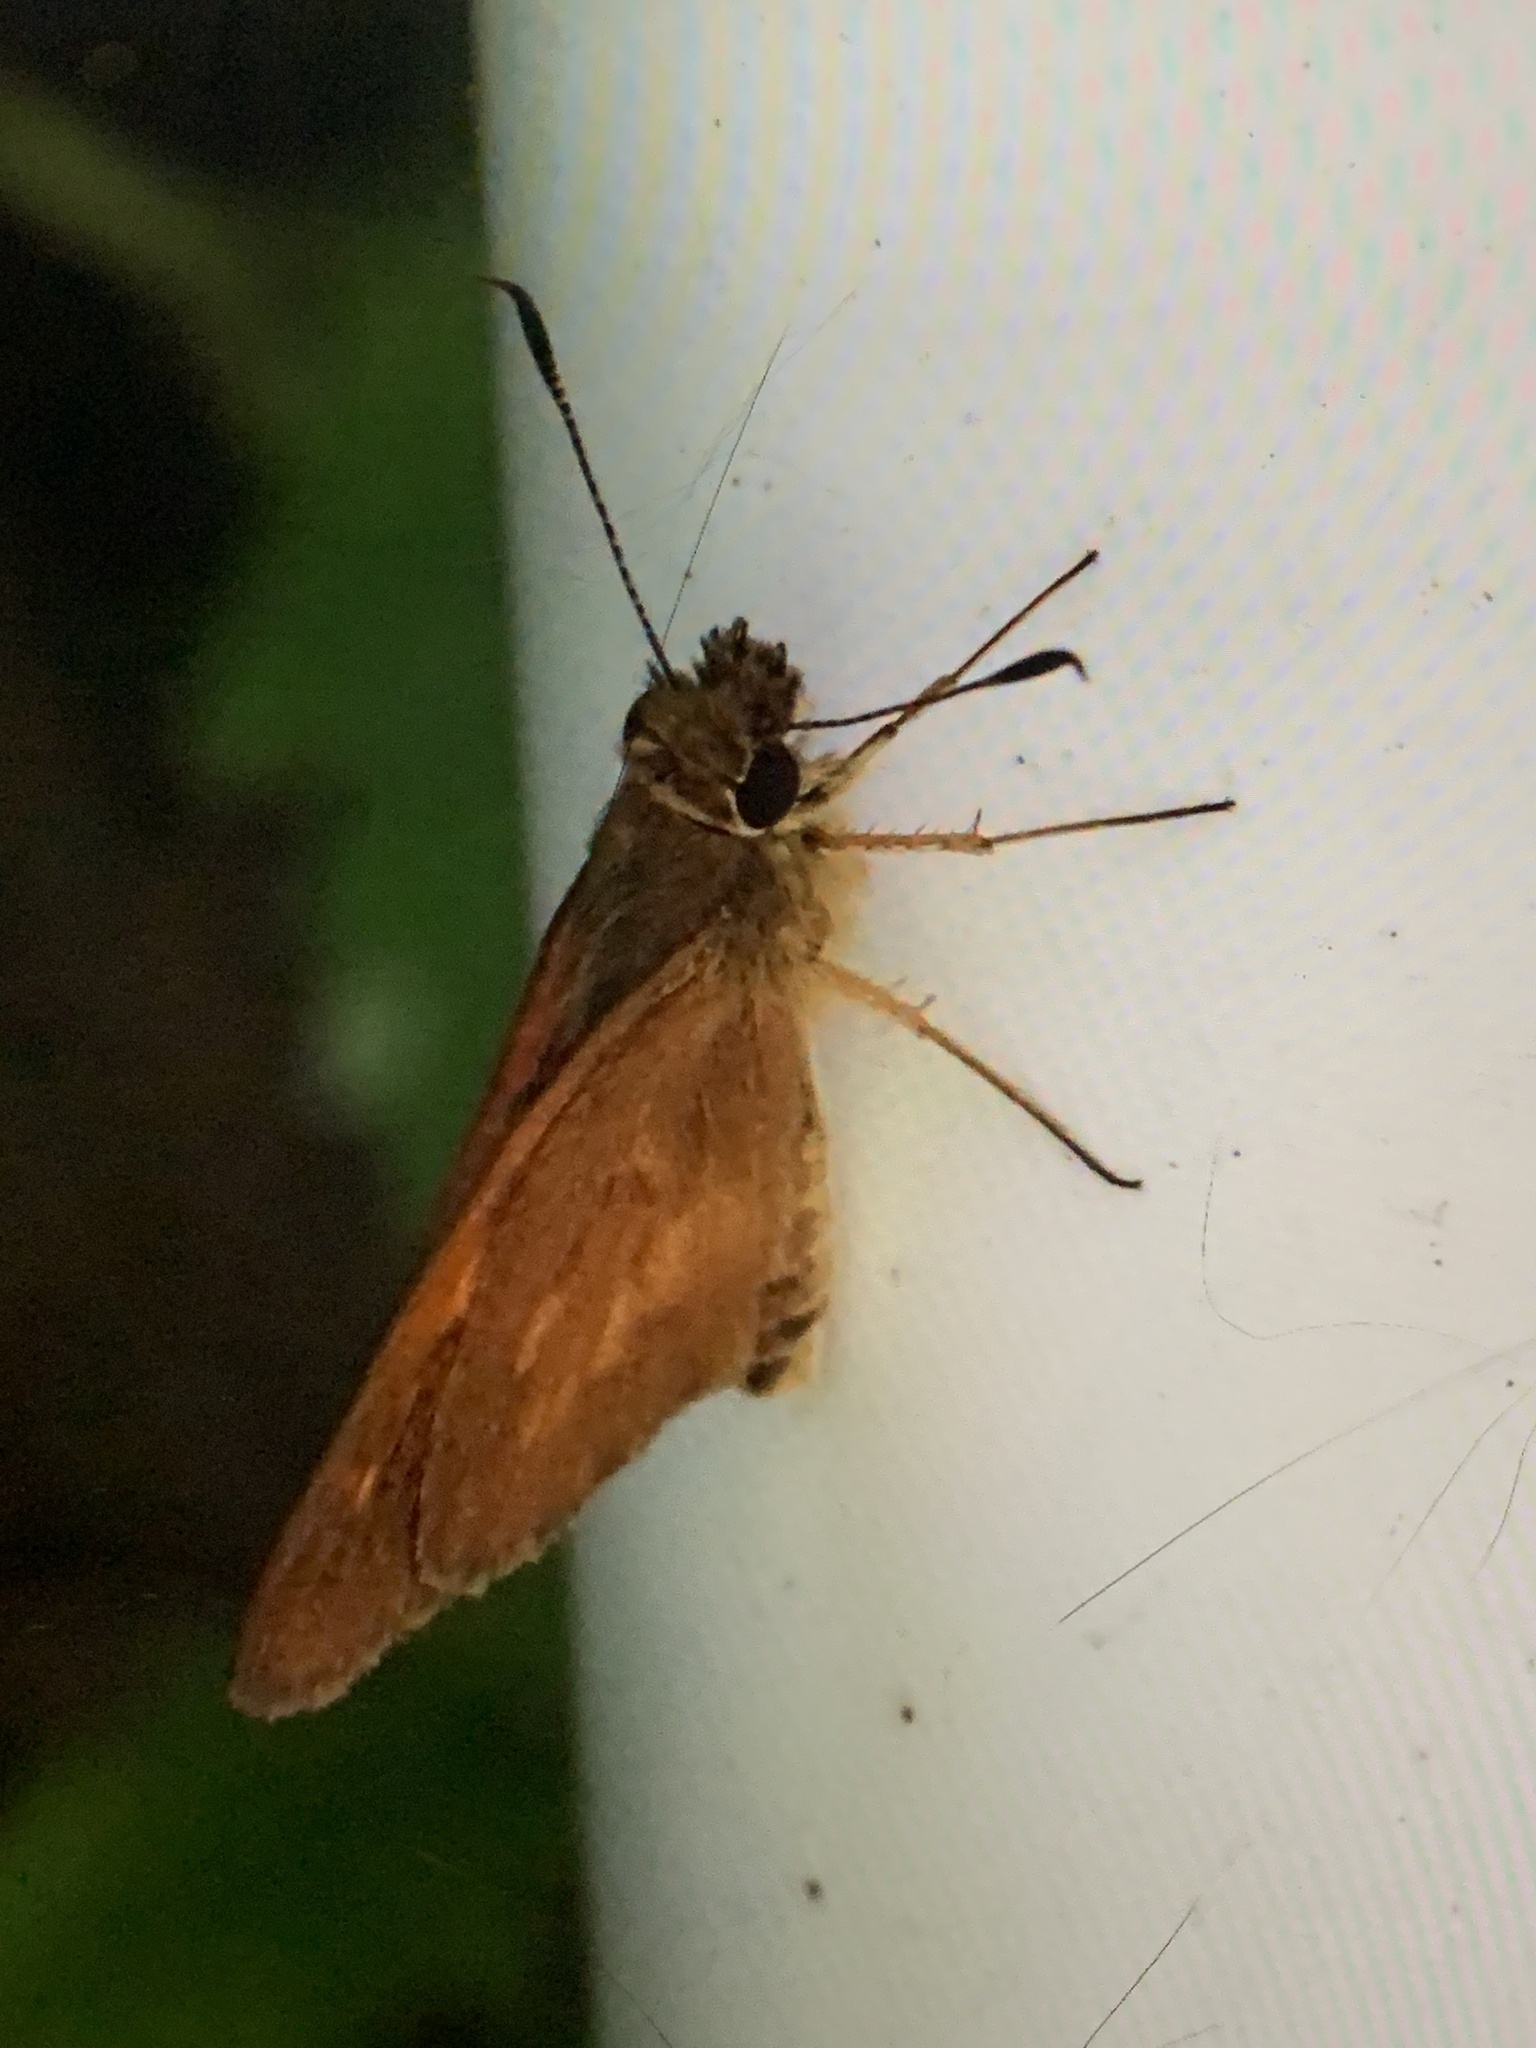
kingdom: Animalia
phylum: Arthropoda
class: Insecta
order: Lepidoptera
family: Hesperiidae
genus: Poanes
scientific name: Poanes viator
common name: Broad-winged skipper
